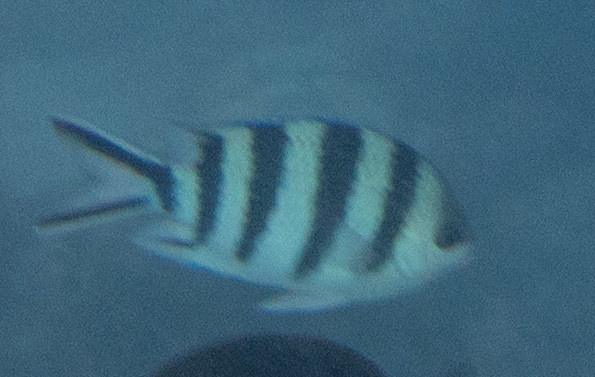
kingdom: Animalia
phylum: Chordata
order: Perciformes
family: Pomacentridae
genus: Abudefduf
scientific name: Abudefduf sexfasciatus
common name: Scissortail sergeant
